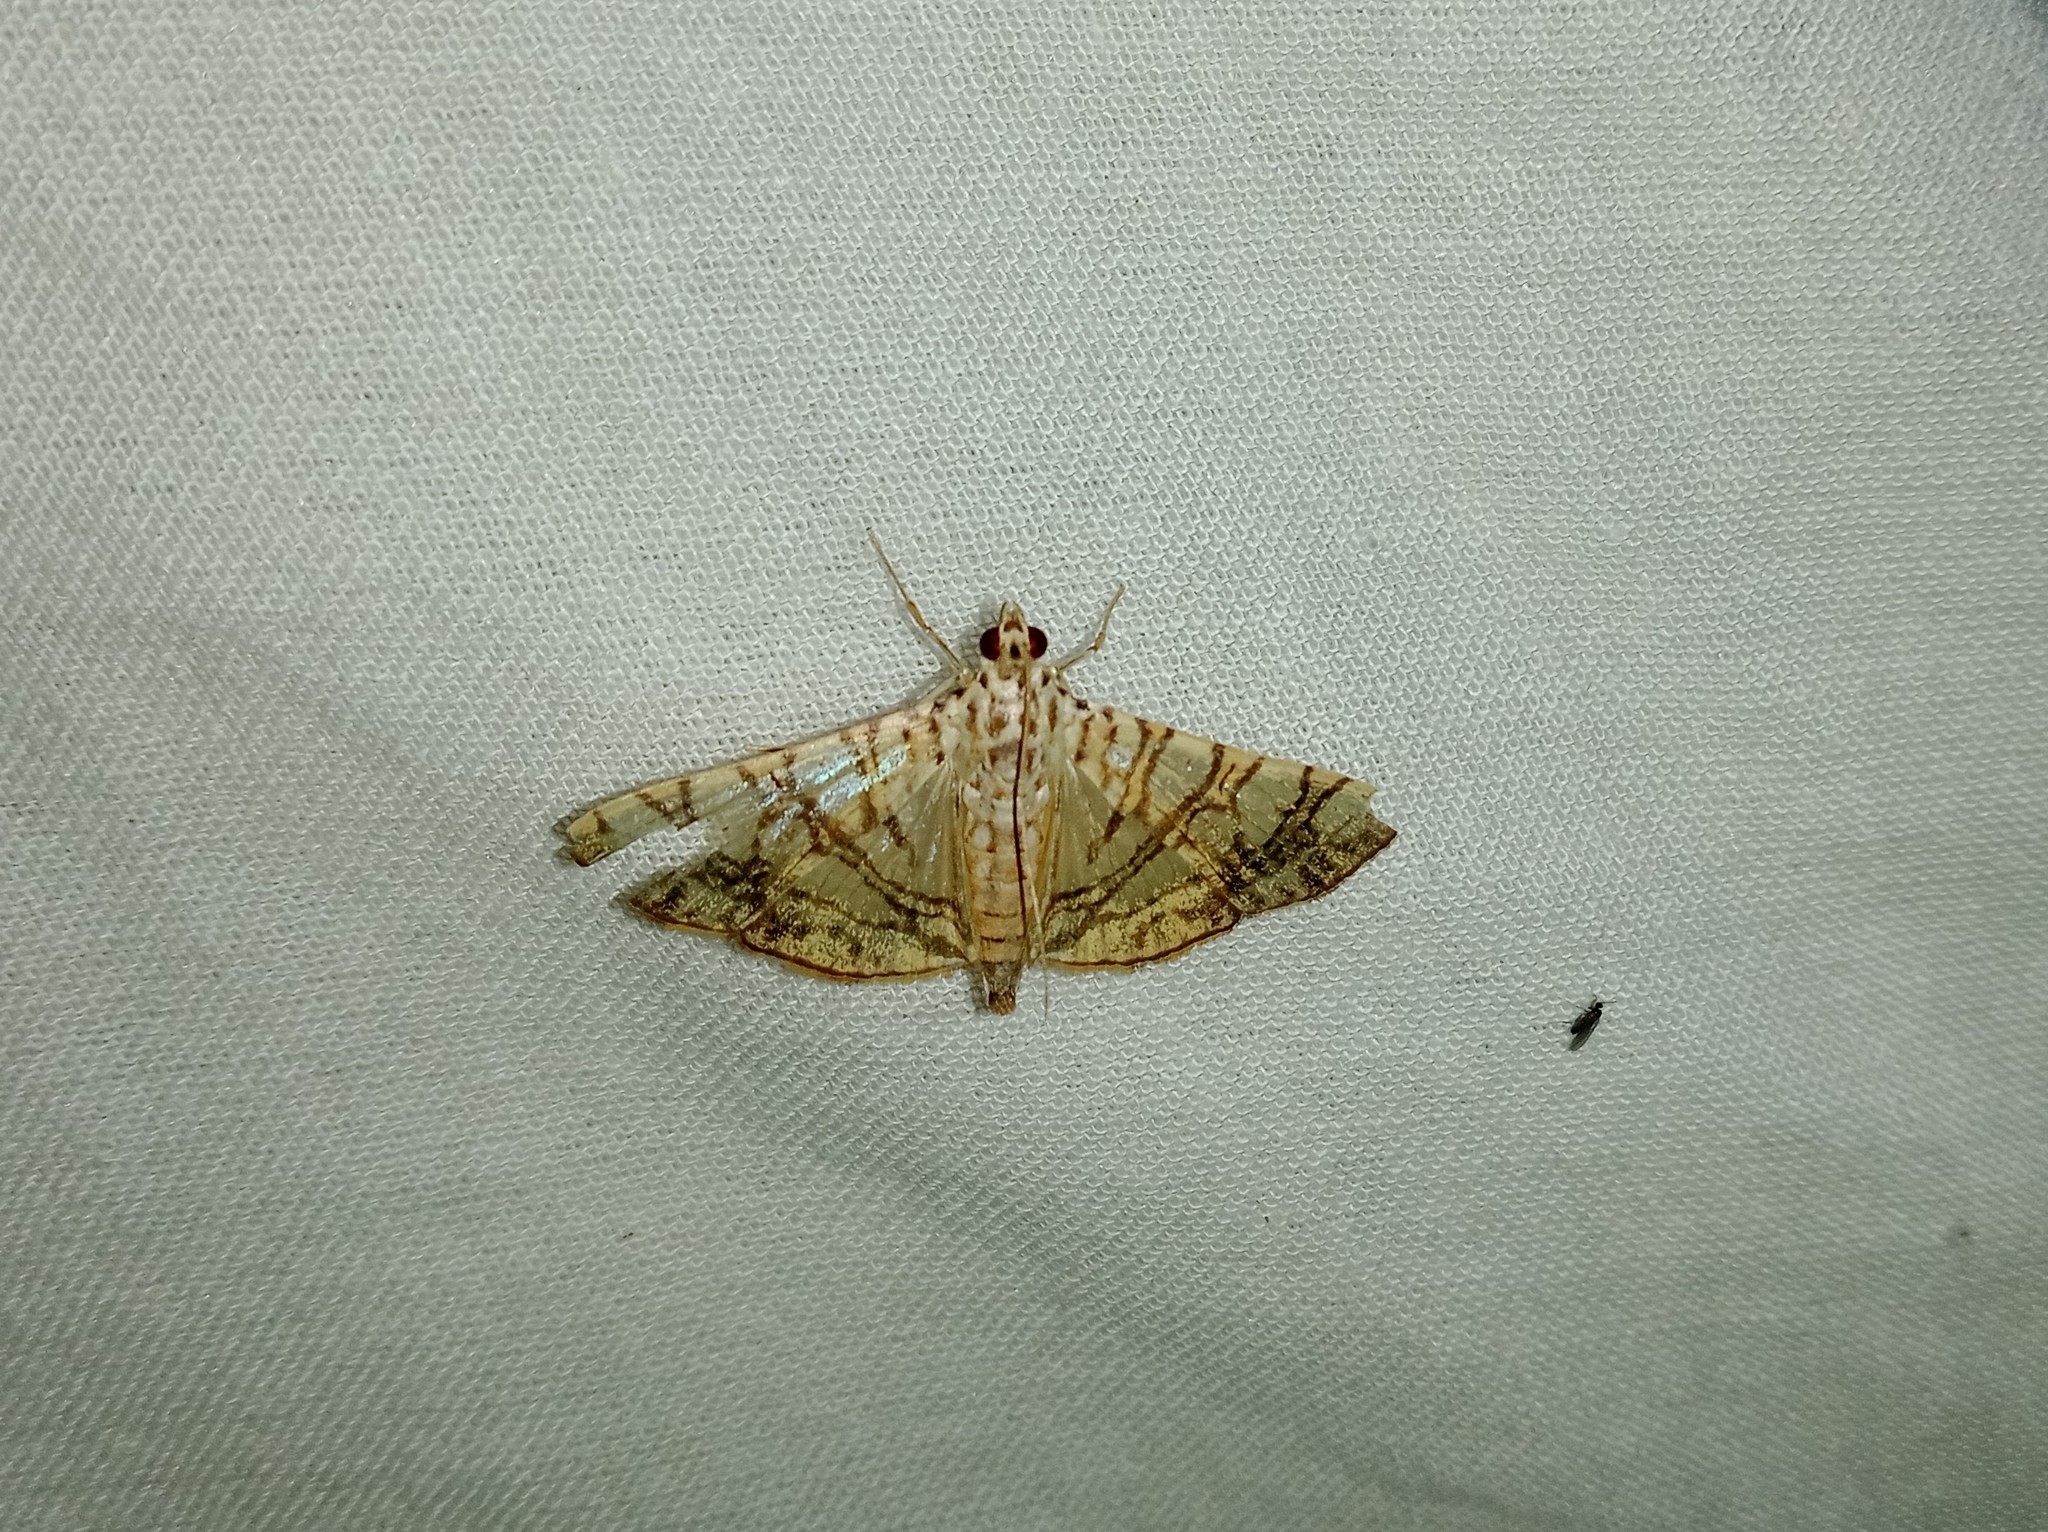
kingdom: Animalia
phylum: Arthropoda
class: Insecta
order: Lepidoptera
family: Crambidae
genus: Glyphodes
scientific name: Glyphodes caesalis
